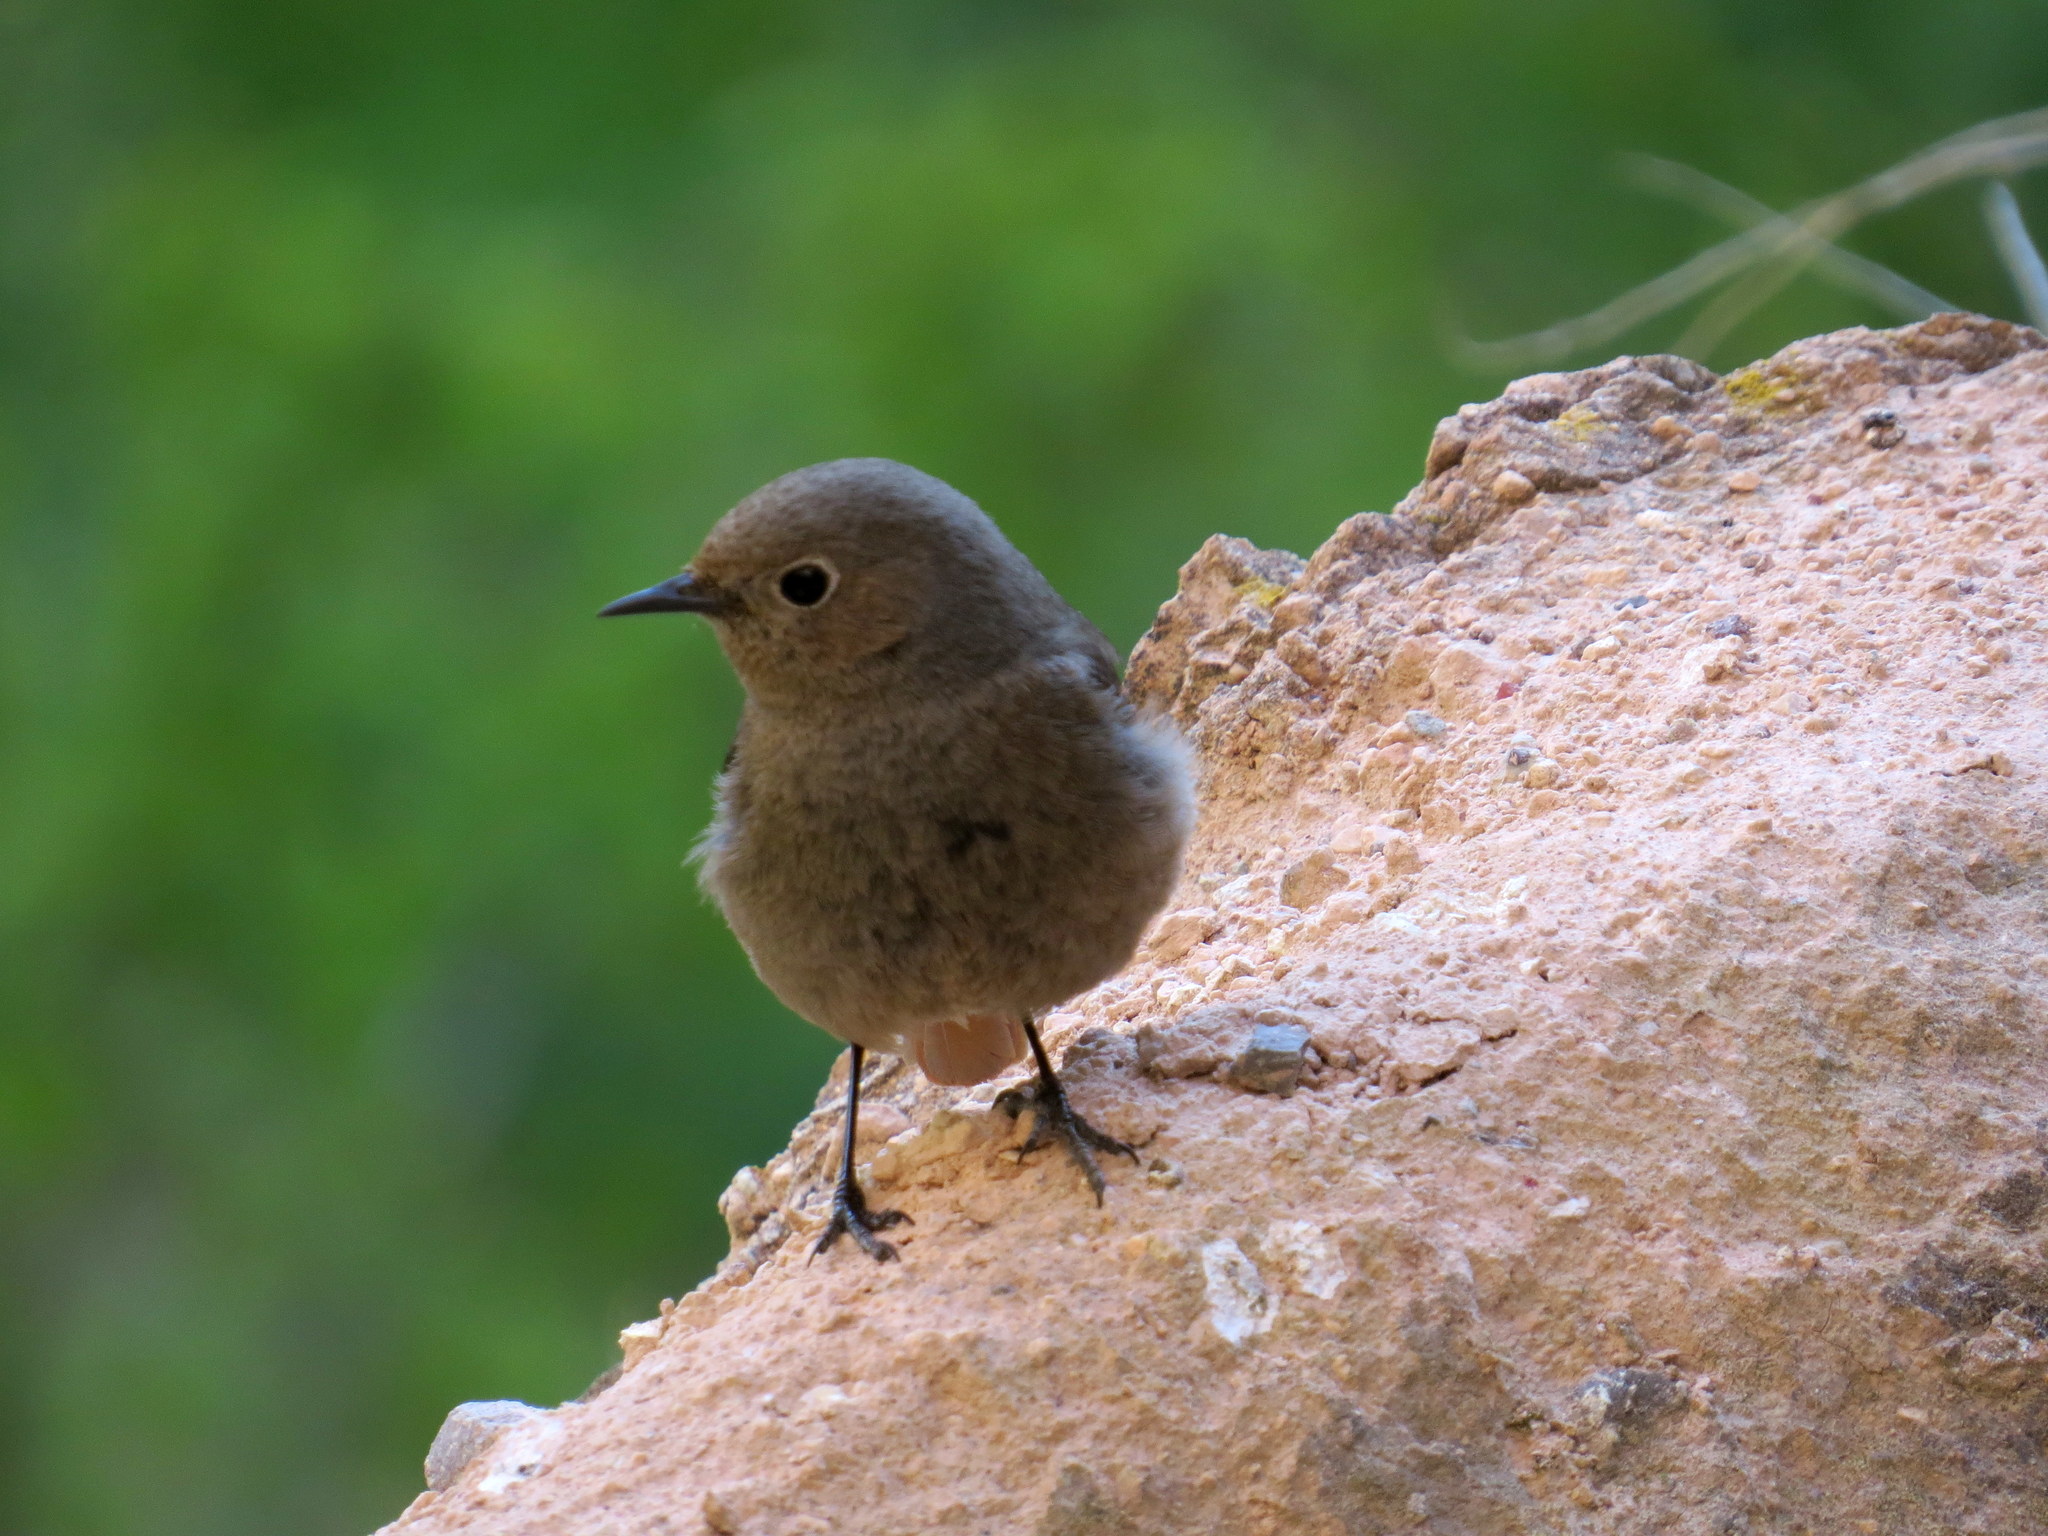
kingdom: Animalia
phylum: Chordata
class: Aves
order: Passeriformes
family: Muscicapidae
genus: Phoenicurus
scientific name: Phoenicurus ochruros
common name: Black redstart
